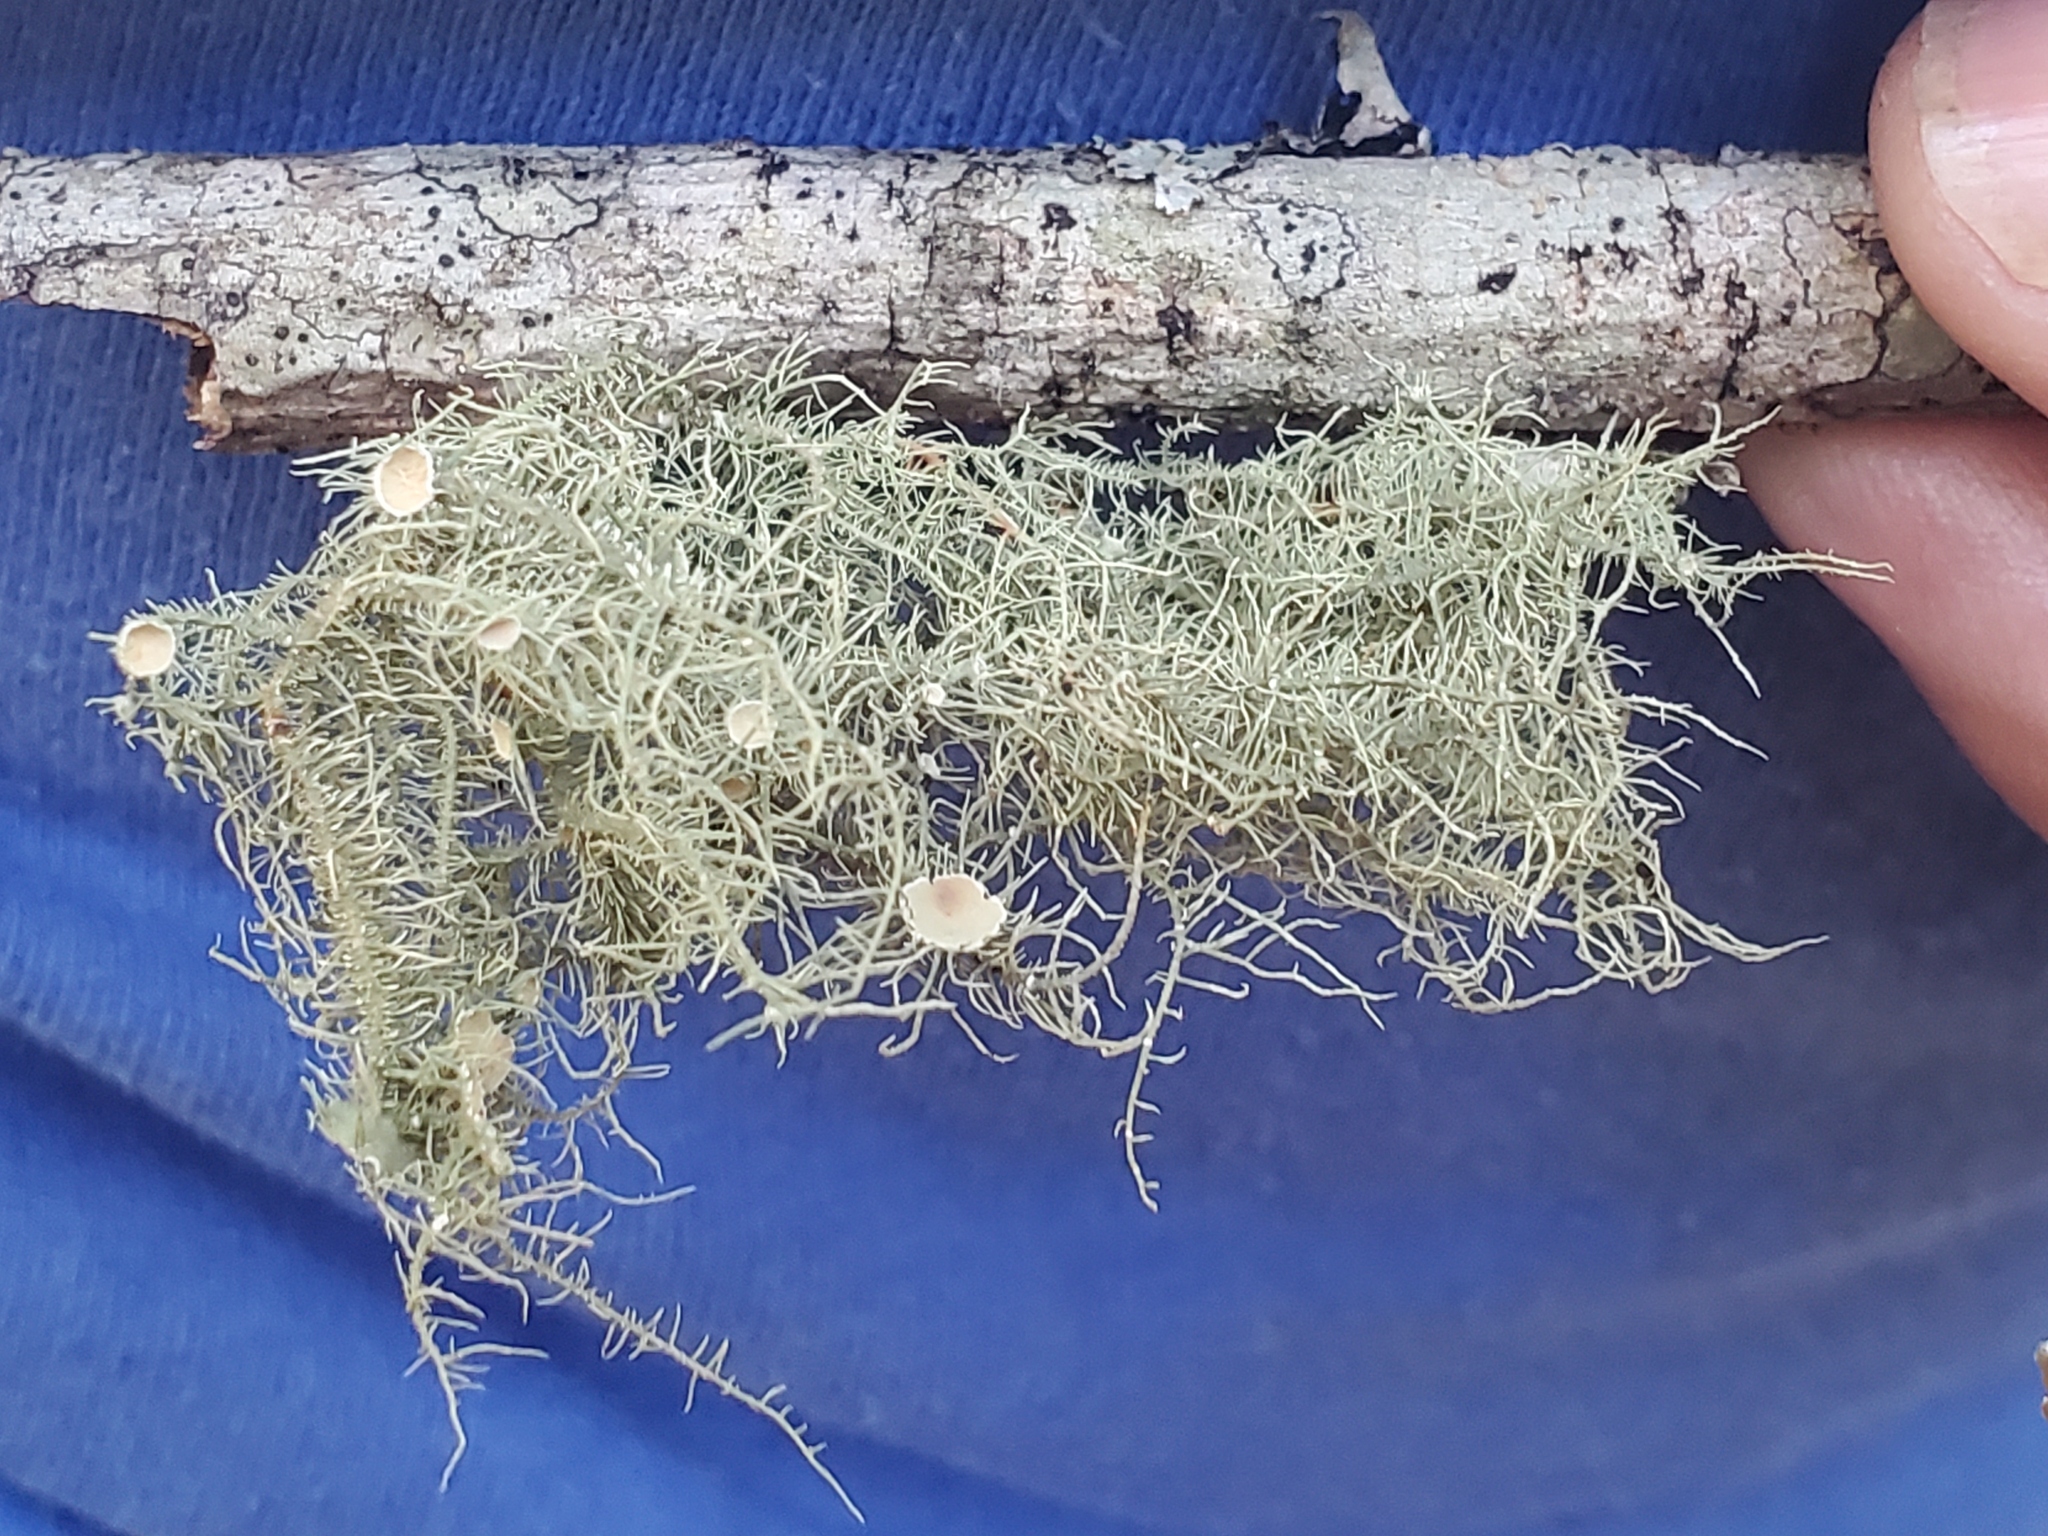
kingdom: Fungi
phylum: Ascomycota
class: Lecanoromycetes
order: Lecanorales
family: Parmeliaceae
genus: Usnea
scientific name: Usnea strigosa
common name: Bushy beard lichen
